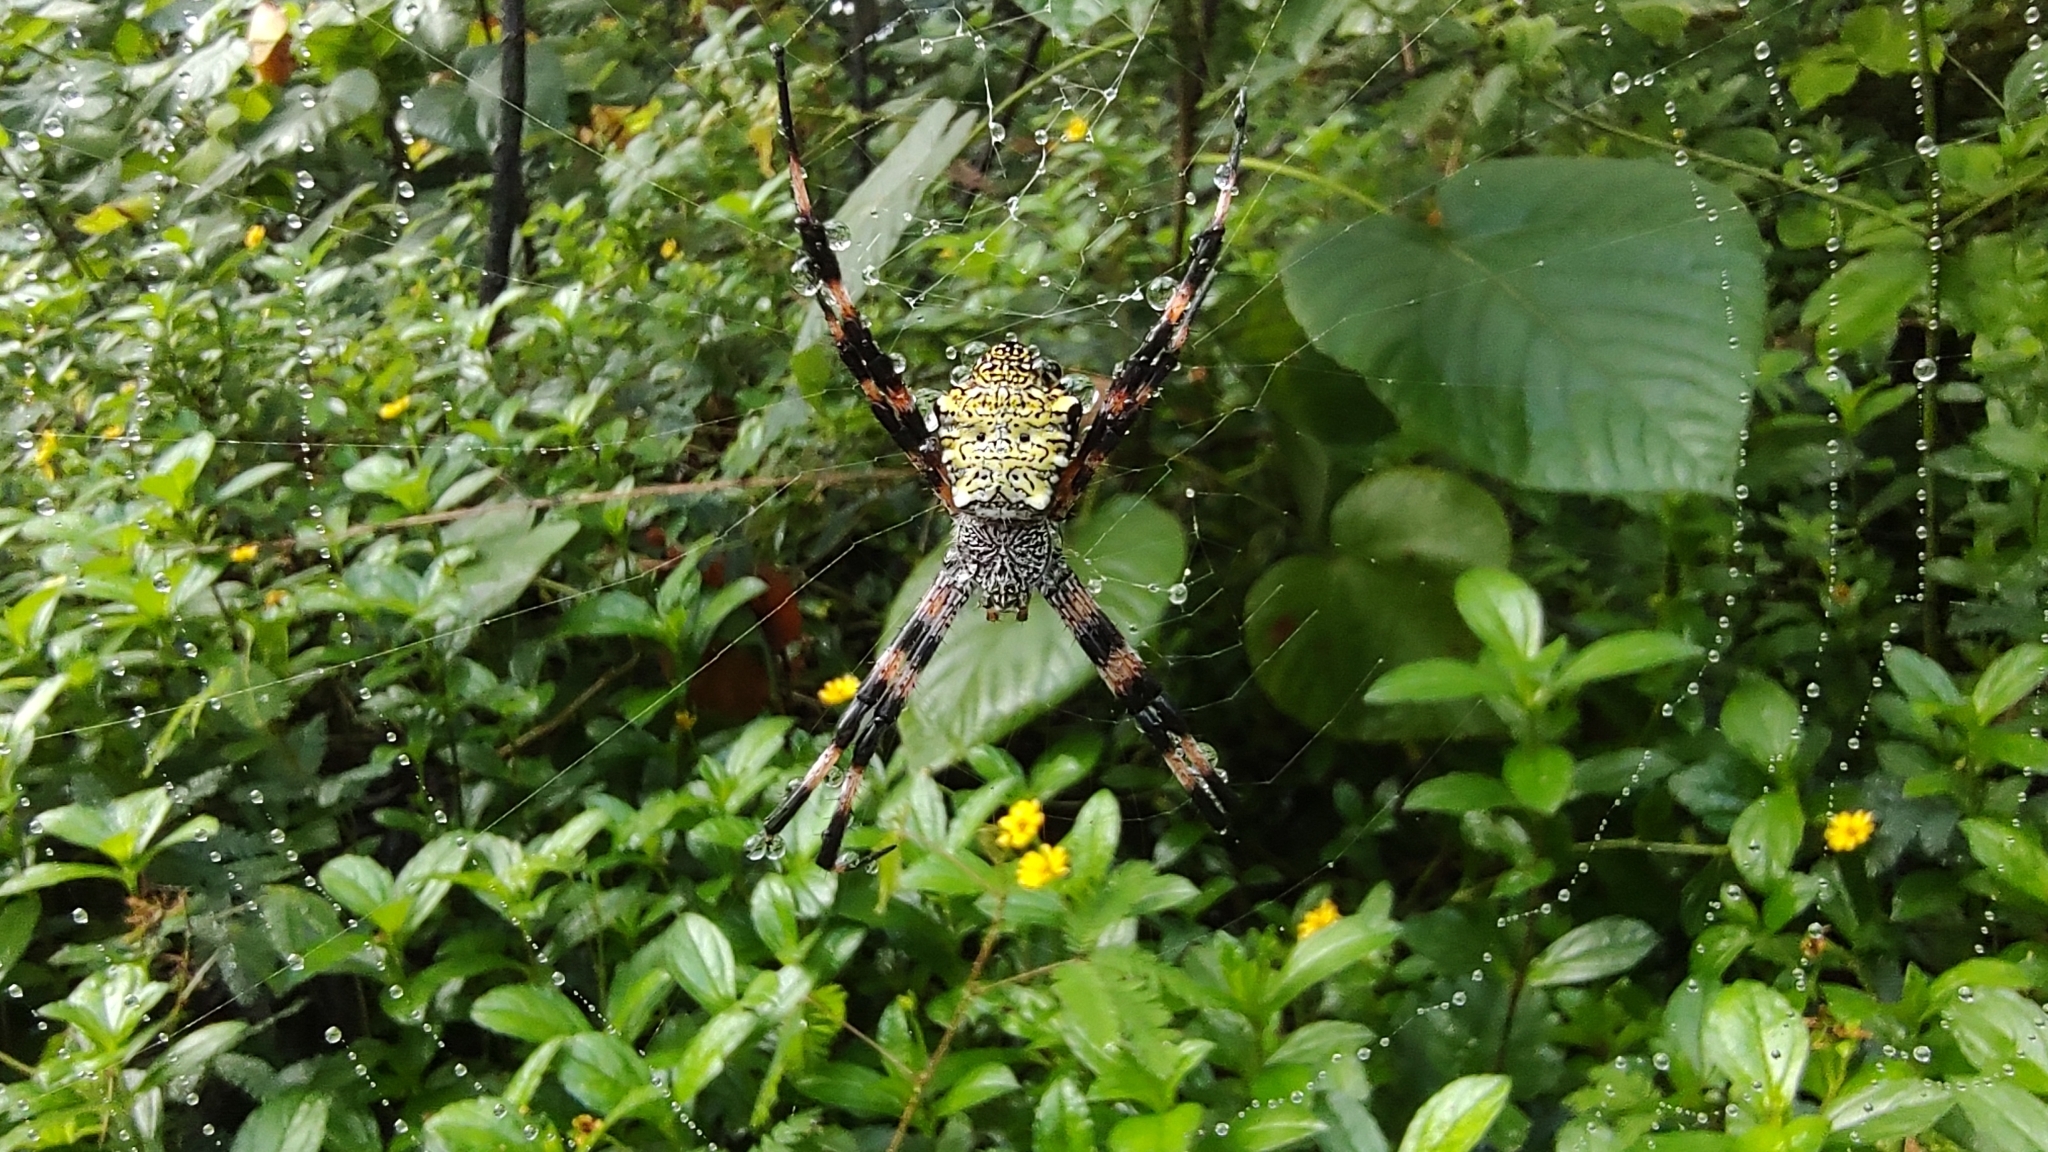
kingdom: Animalia
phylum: Arthropoda
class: Arachnida
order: Araneae
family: Araneidae
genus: Argiope
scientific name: Argiope appensa
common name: Garden spider
